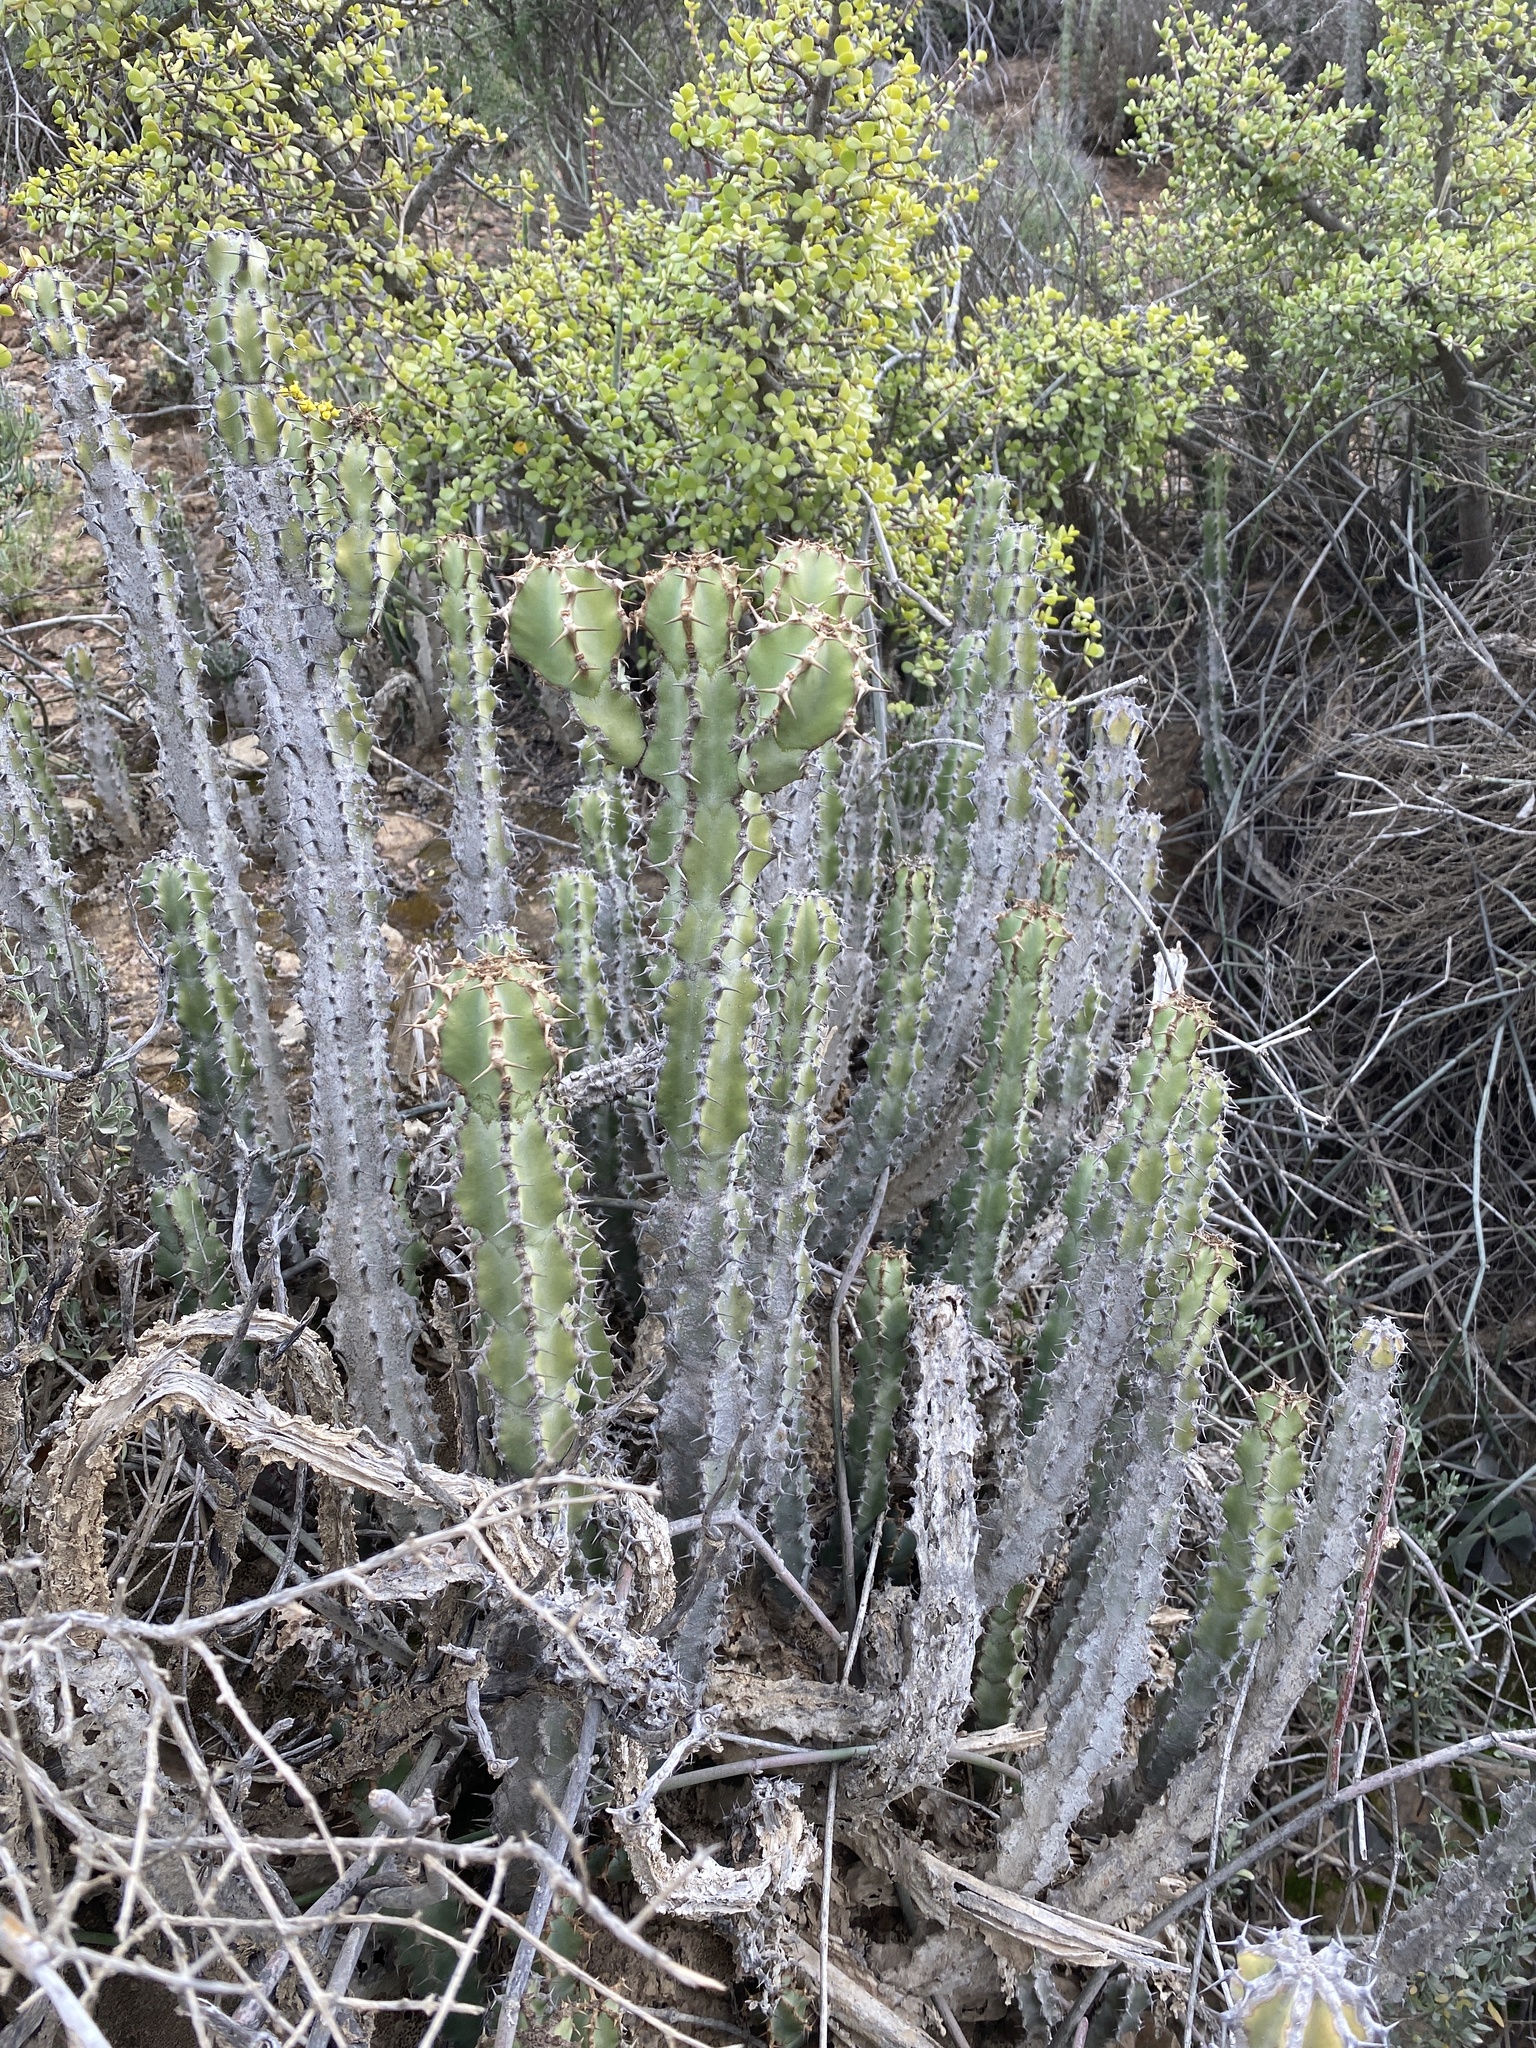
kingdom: Plantae
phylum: Tracheophyta
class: Magnoliopsida
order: Malpighiales
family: Euphorbiaceae
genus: Euphorbia
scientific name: Euphorbia radyeri
